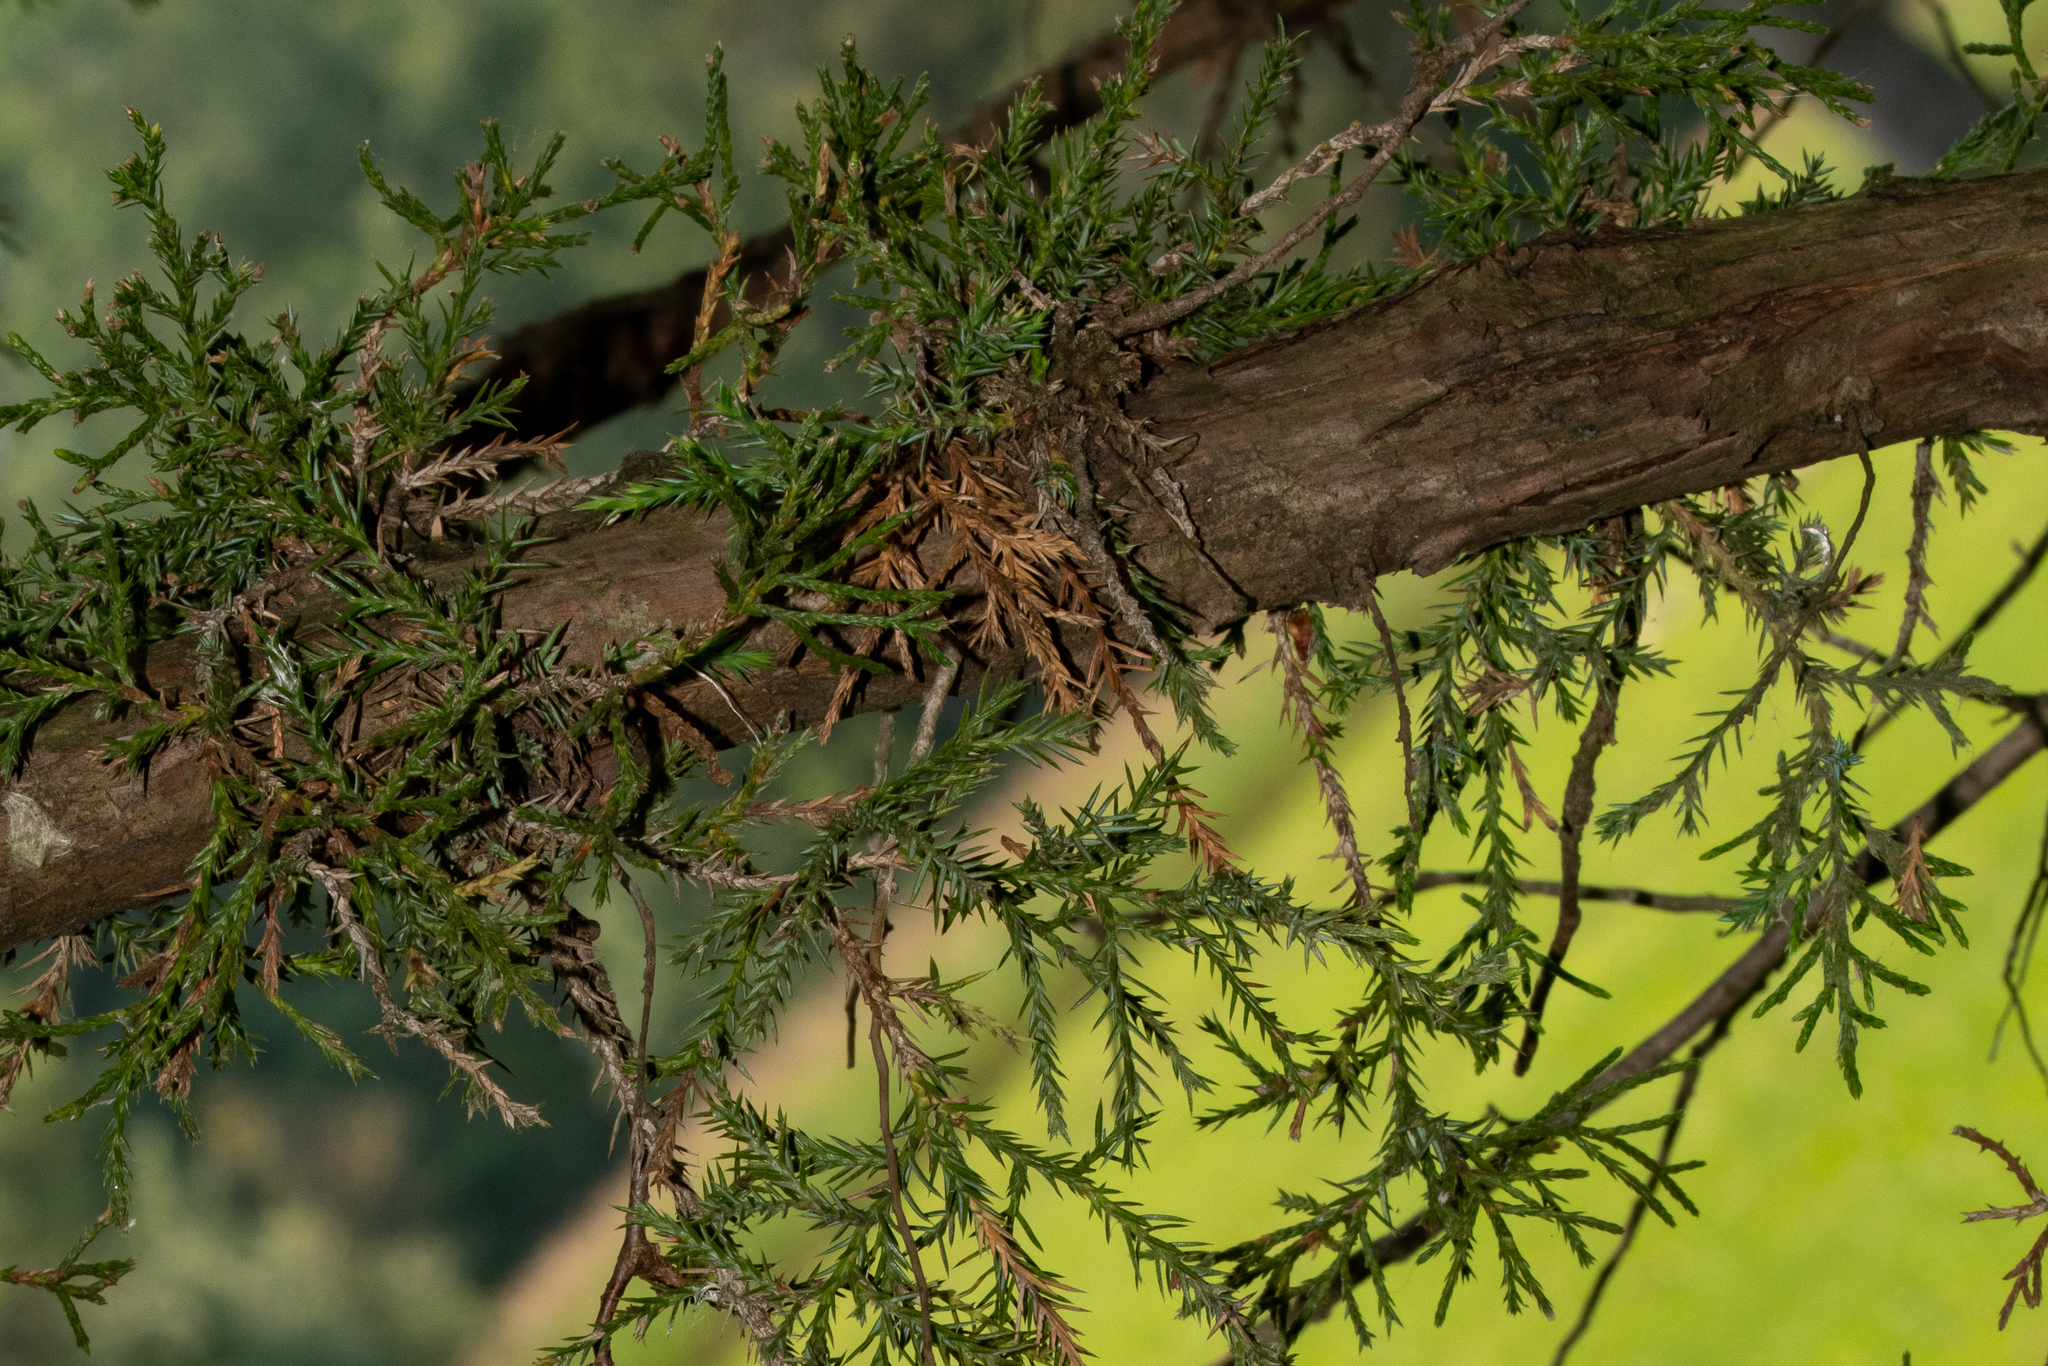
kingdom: Plantae
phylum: Tracheophyta
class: Pinopsida
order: Pinales
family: Cupressaceae
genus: Juniperus
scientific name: Juniperus virginiana
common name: Red juniper
